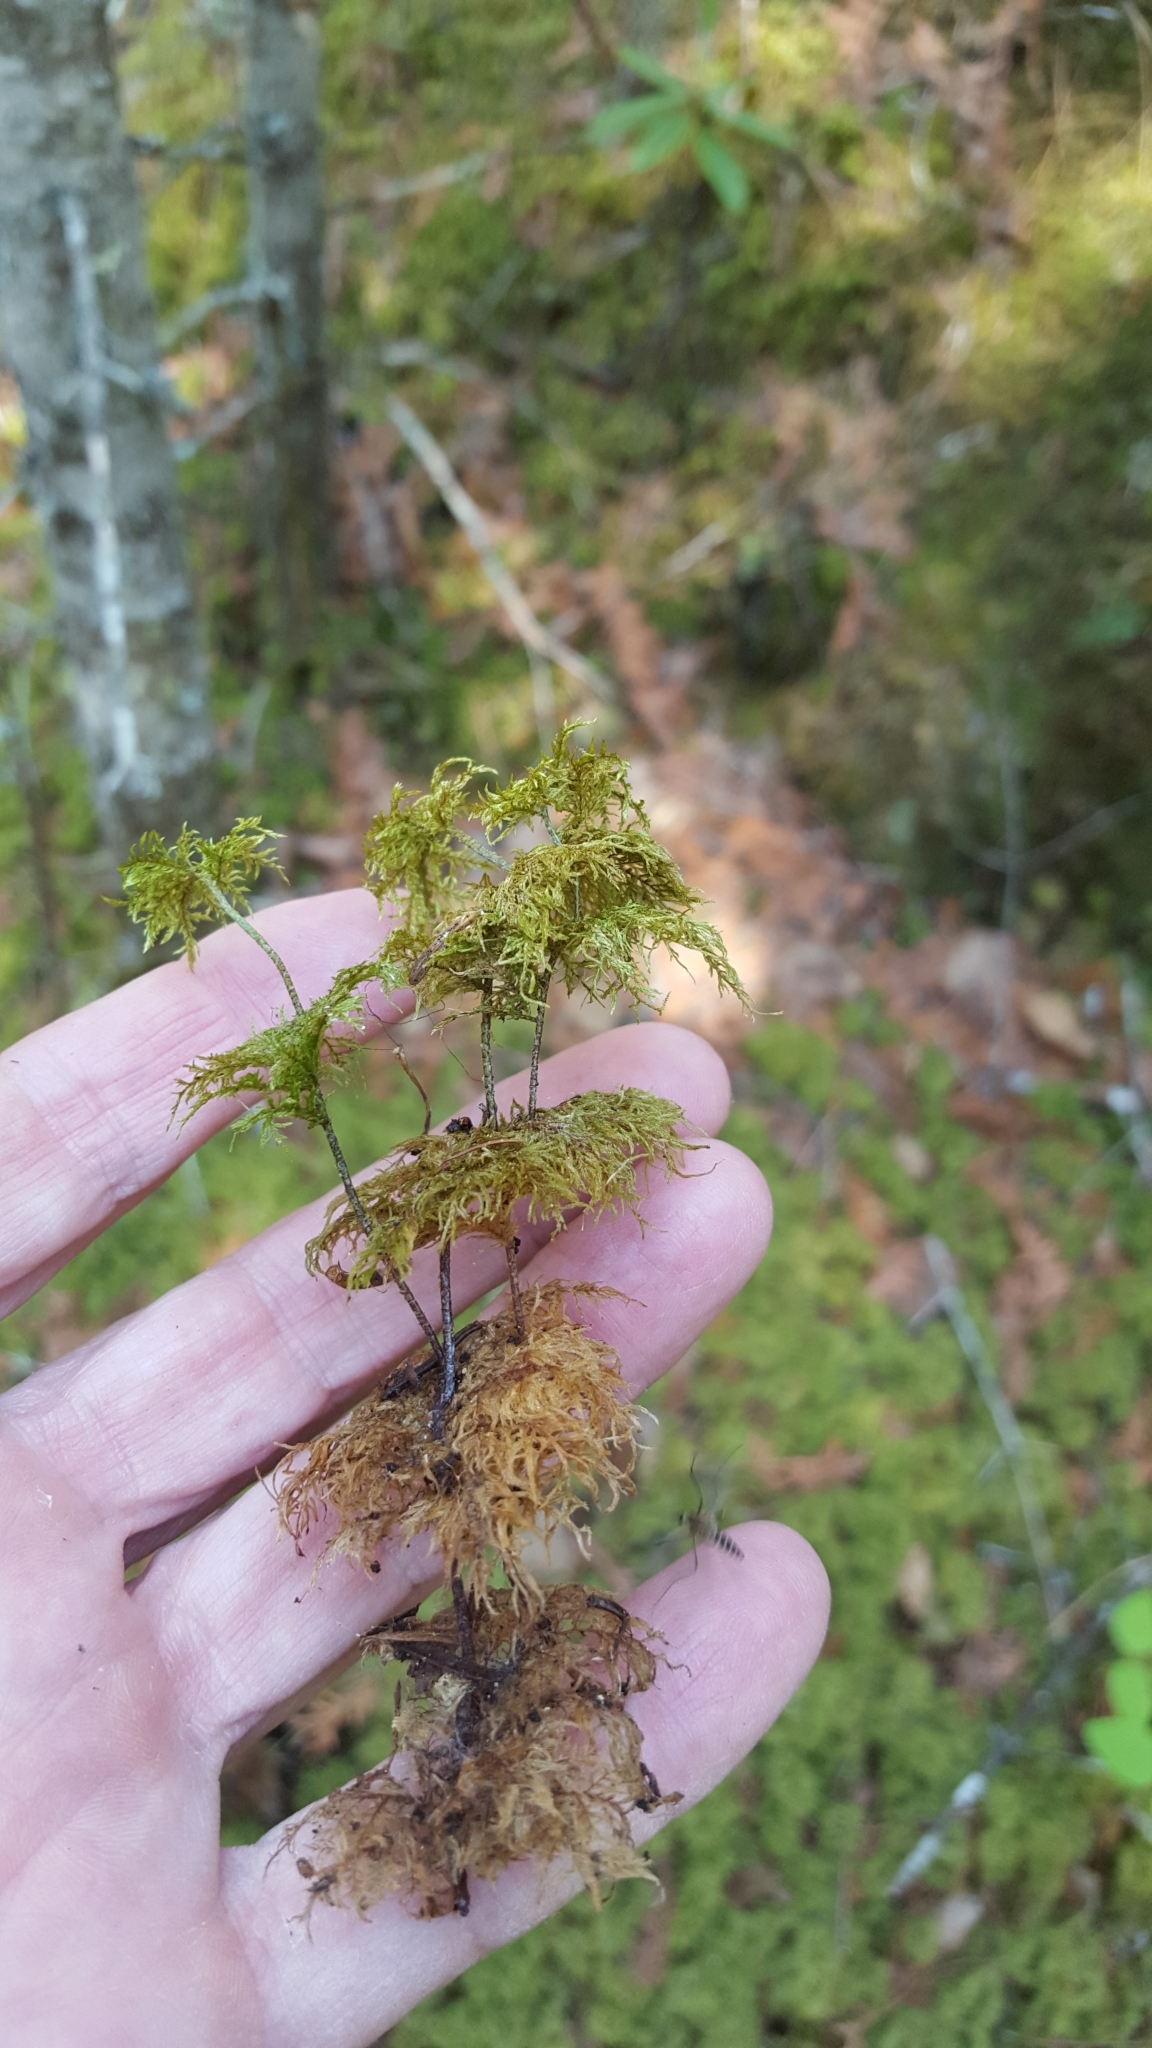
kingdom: Plantae
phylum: Bryophyta
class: Bryopsida
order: Hypnales
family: Hylocomiaceae
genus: Hylocomium
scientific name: Hylocomium splendens
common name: Stairstep moss
